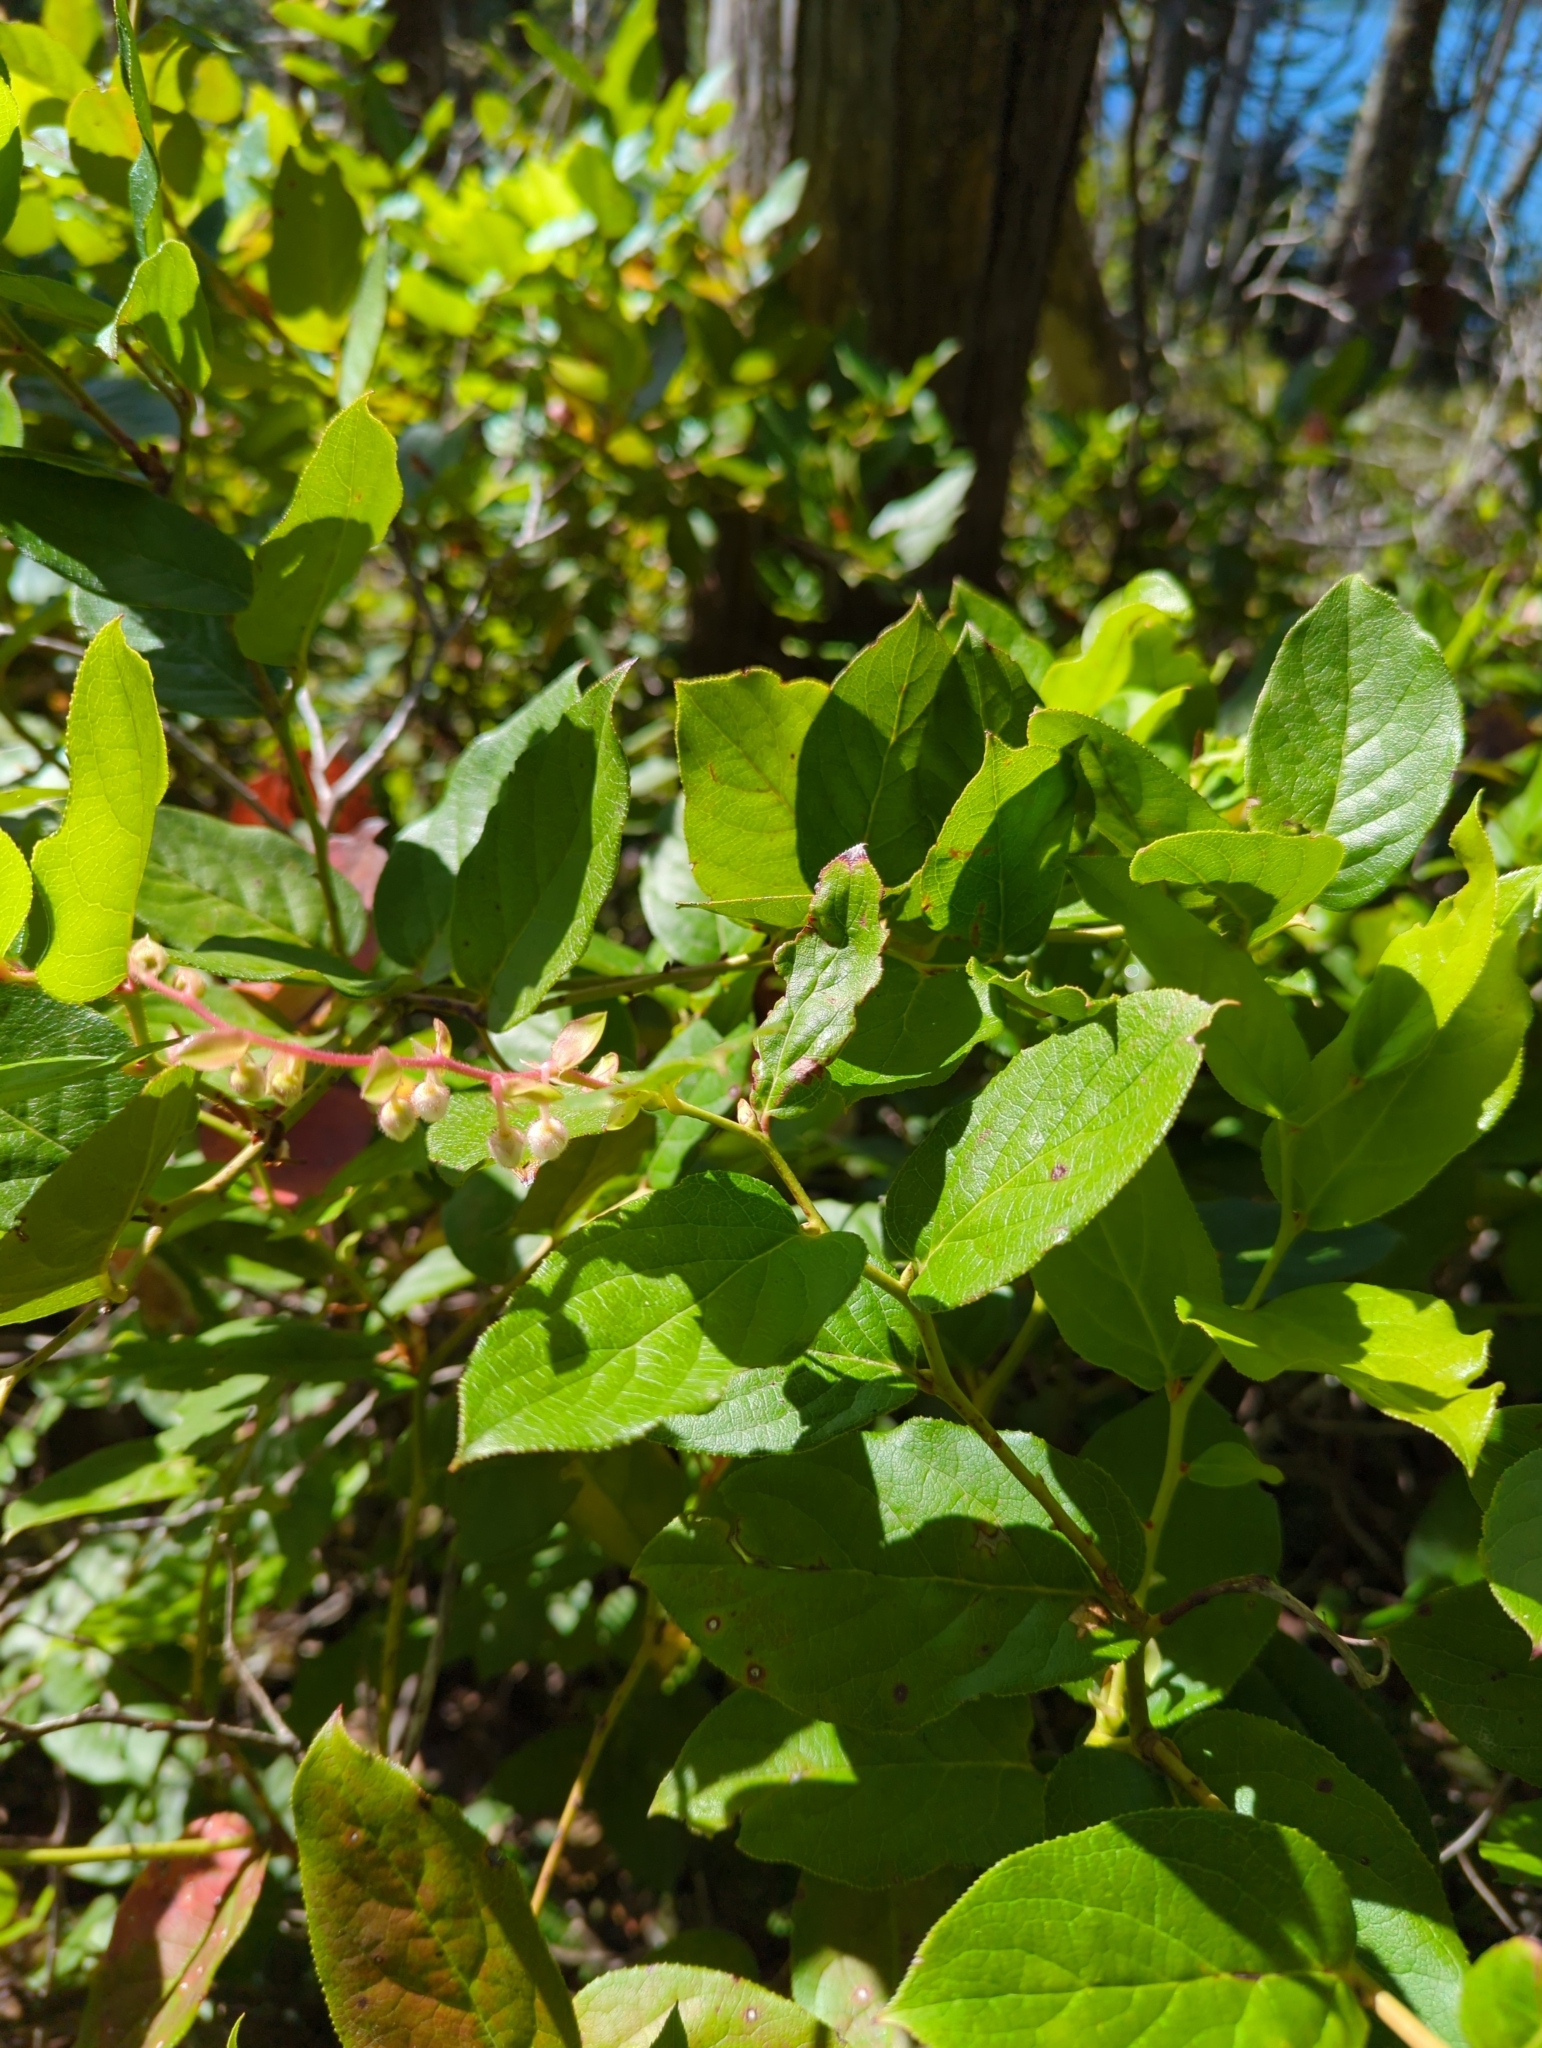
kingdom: Plantae
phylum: Tracheophyta
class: Magnoliopsida
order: Ericales
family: Ericaceae
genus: Gaultheria
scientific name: Gaultheria shallon
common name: Shallon
